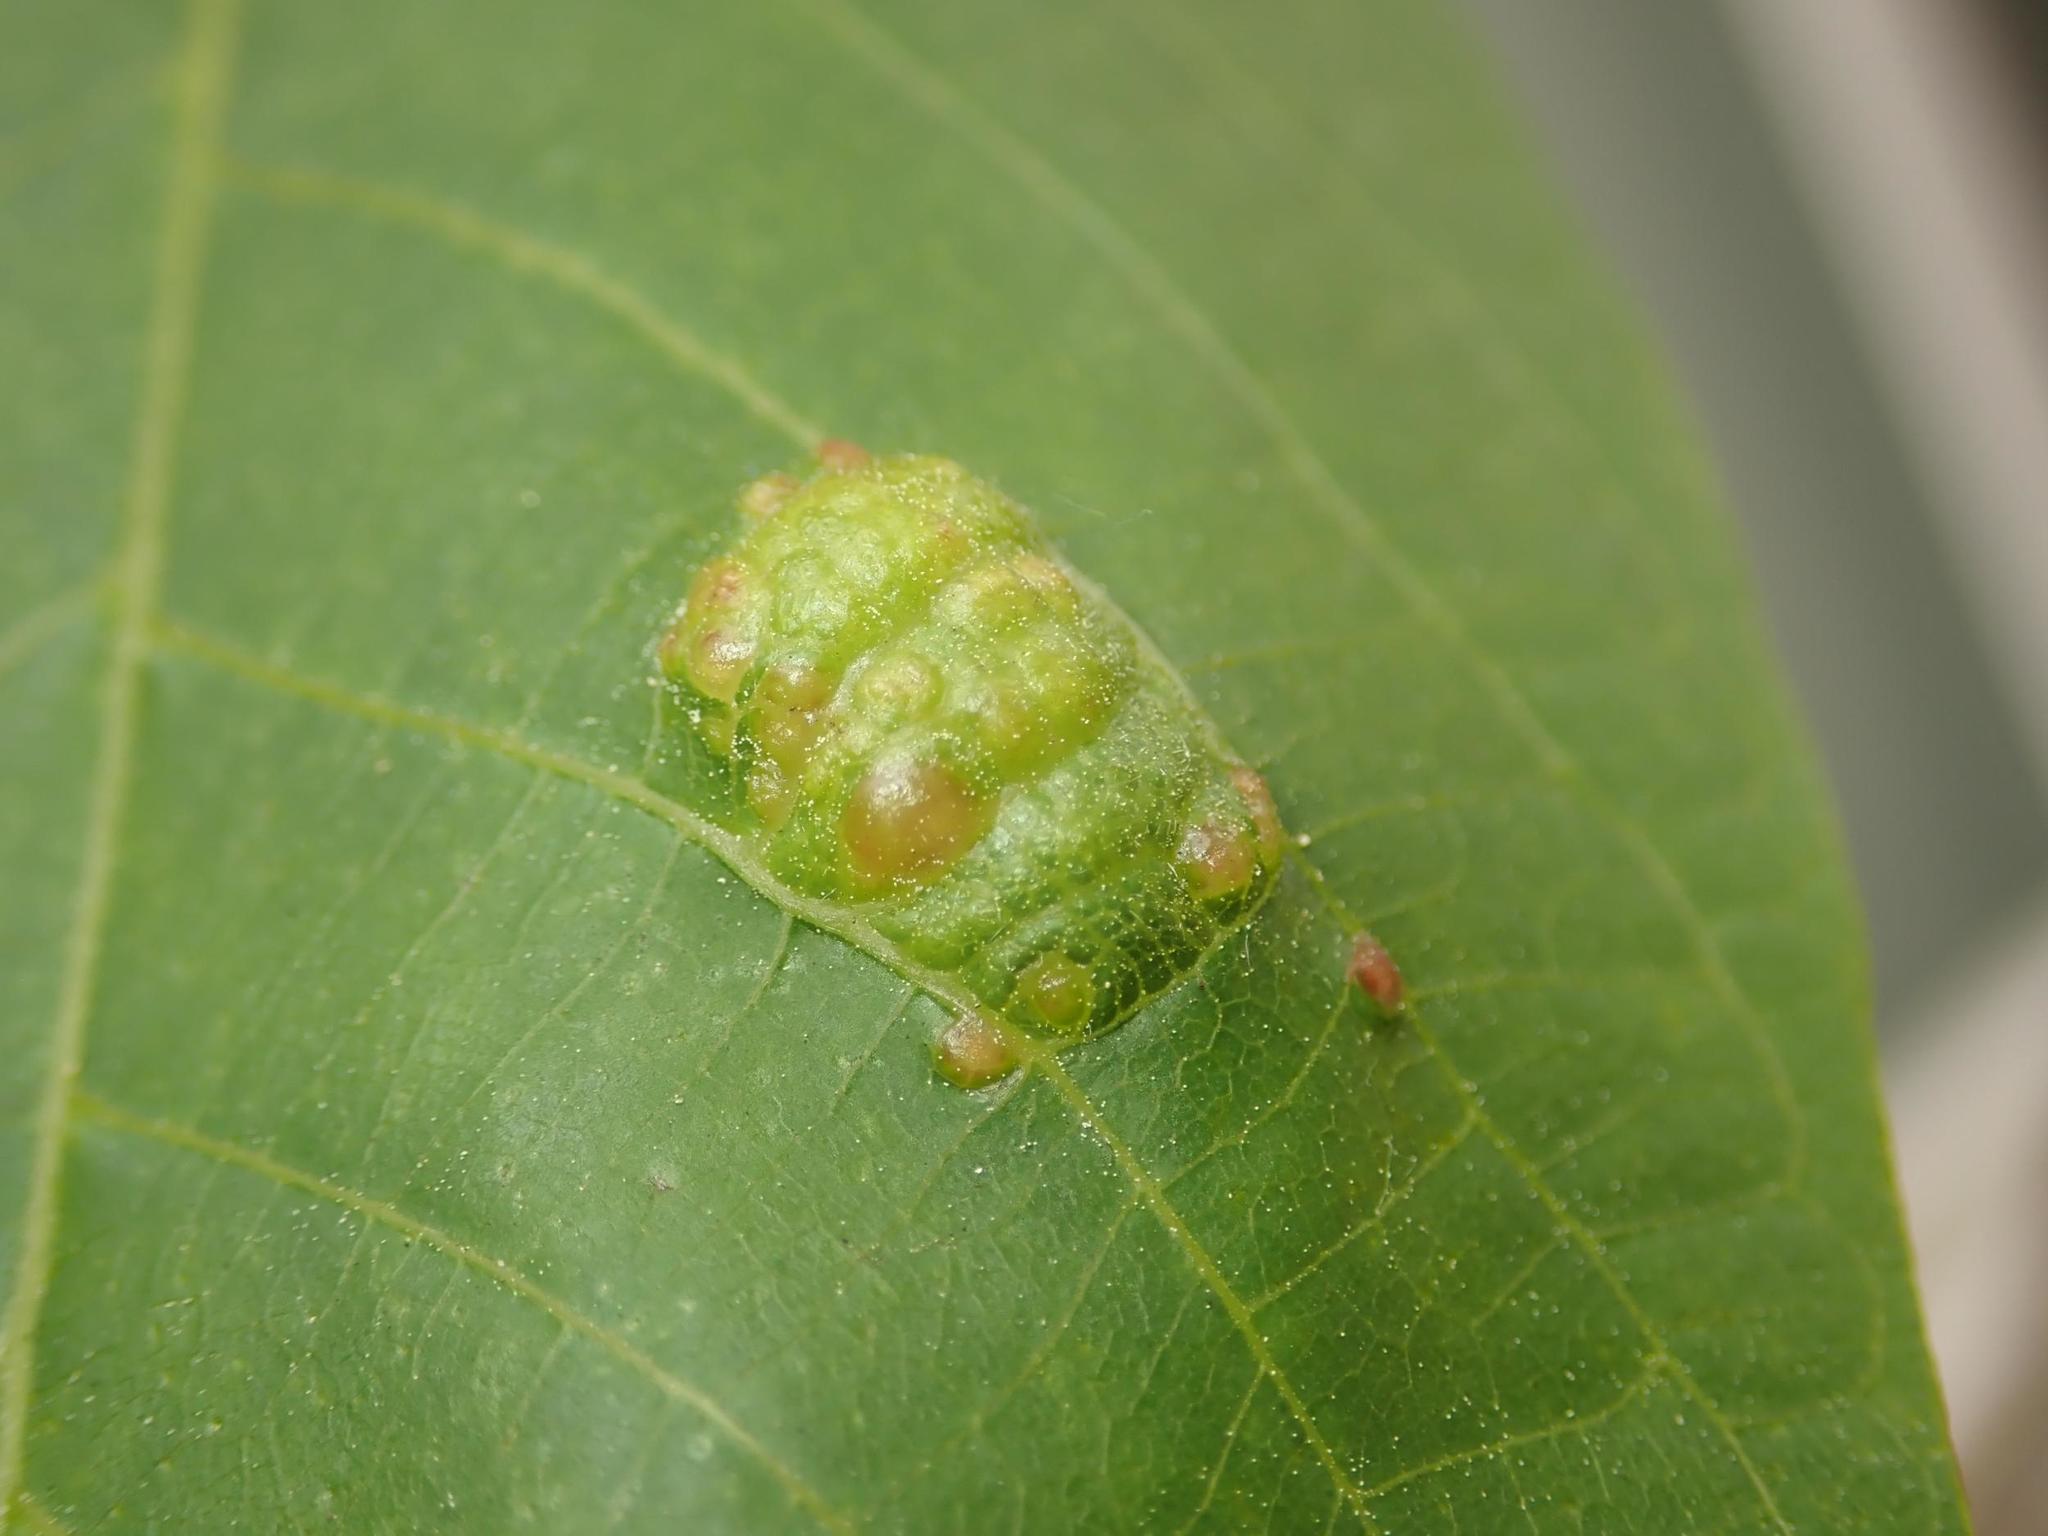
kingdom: Animalia
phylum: Arthropoda
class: Arachnida
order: Trombidiformes
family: Eriophyidae
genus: Aceria
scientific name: Aceria erinea
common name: Persian walnut erineum mite
